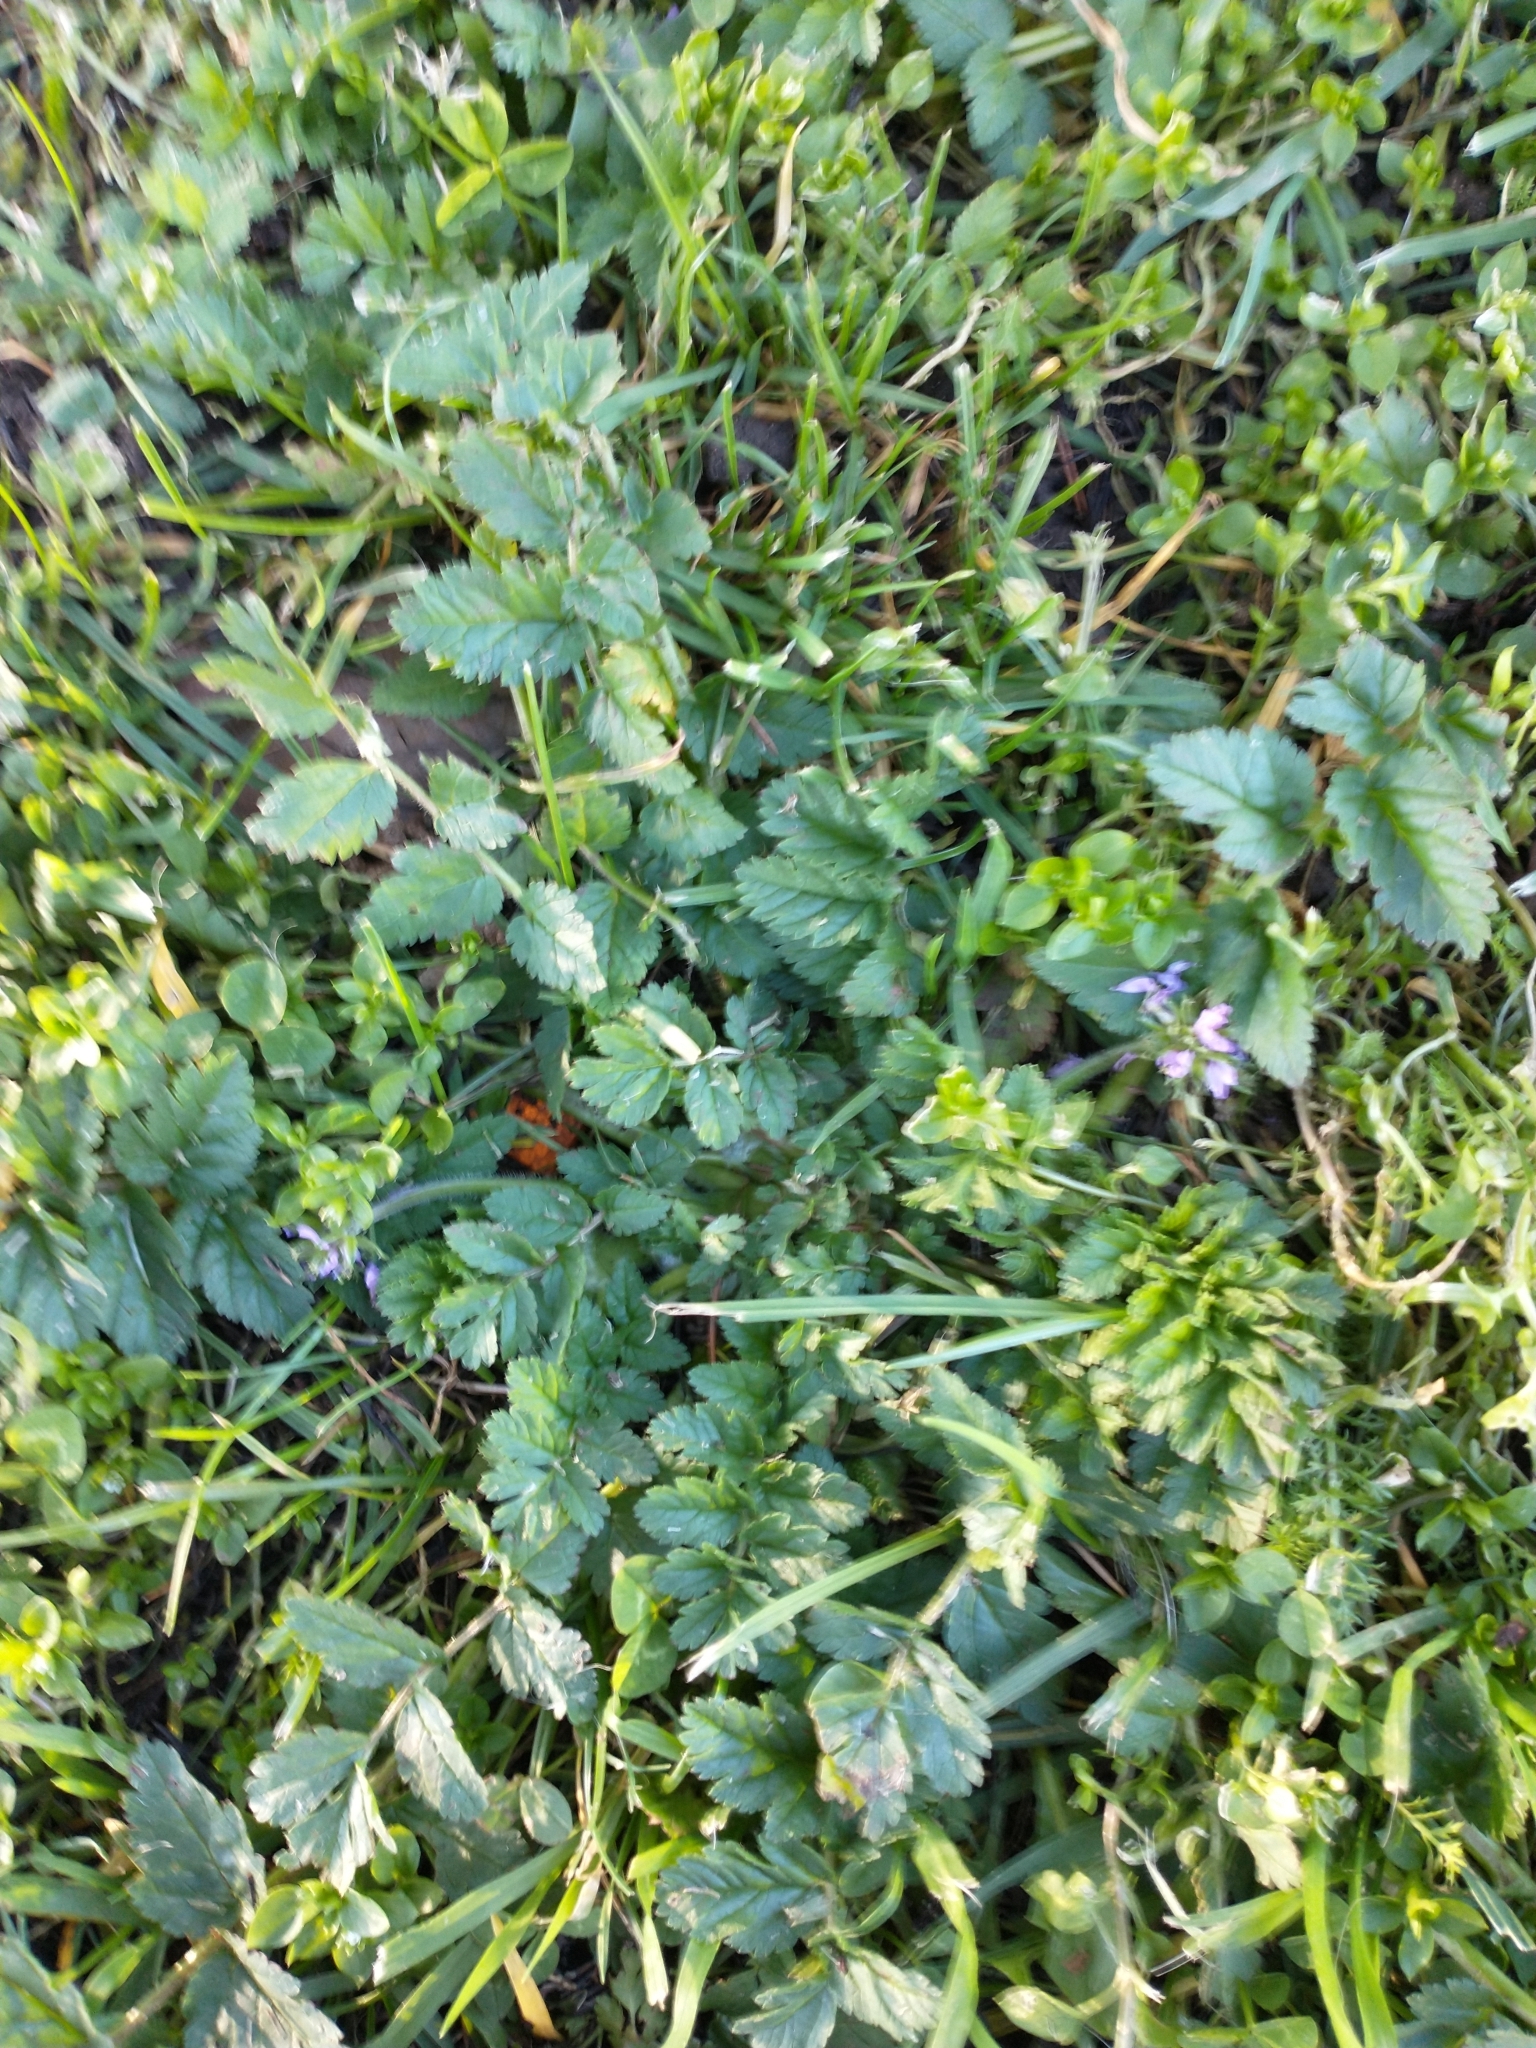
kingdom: Plantae
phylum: Tracheophyta
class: Magnoliopsida
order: Geraniales
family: Geraniaceae
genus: Erodium
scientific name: Erodium moschatum
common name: Musk stork's-bill
